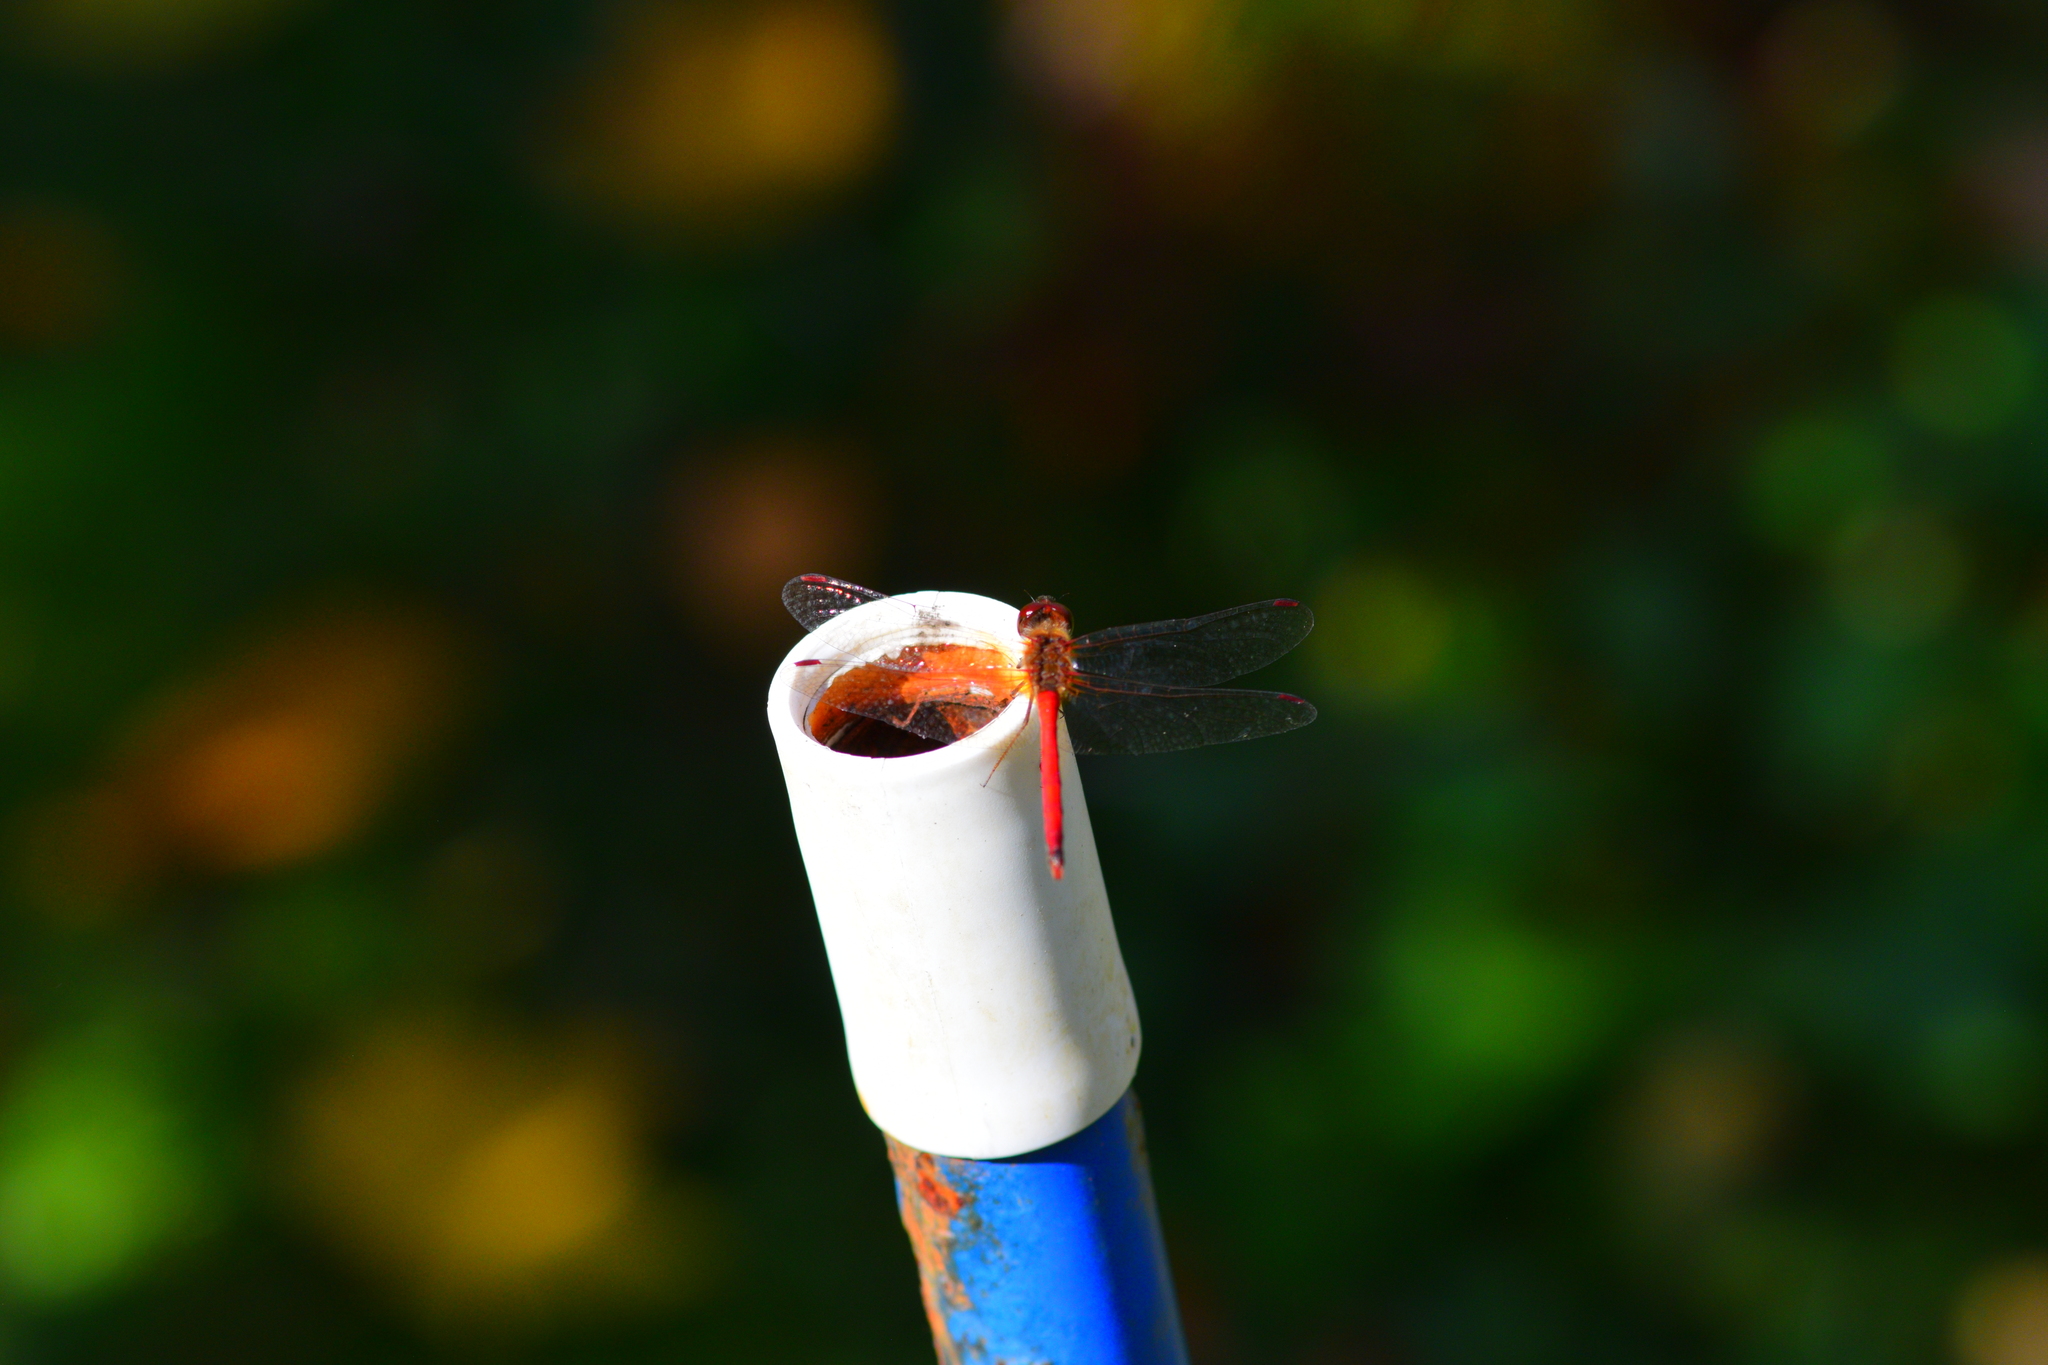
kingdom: Animalia
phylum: Arthropoda
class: Insecta
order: Odonata
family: Libellulidae
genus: Sympetrum
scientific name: Sympetrum vicinum
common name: Autumn meadowhawk
